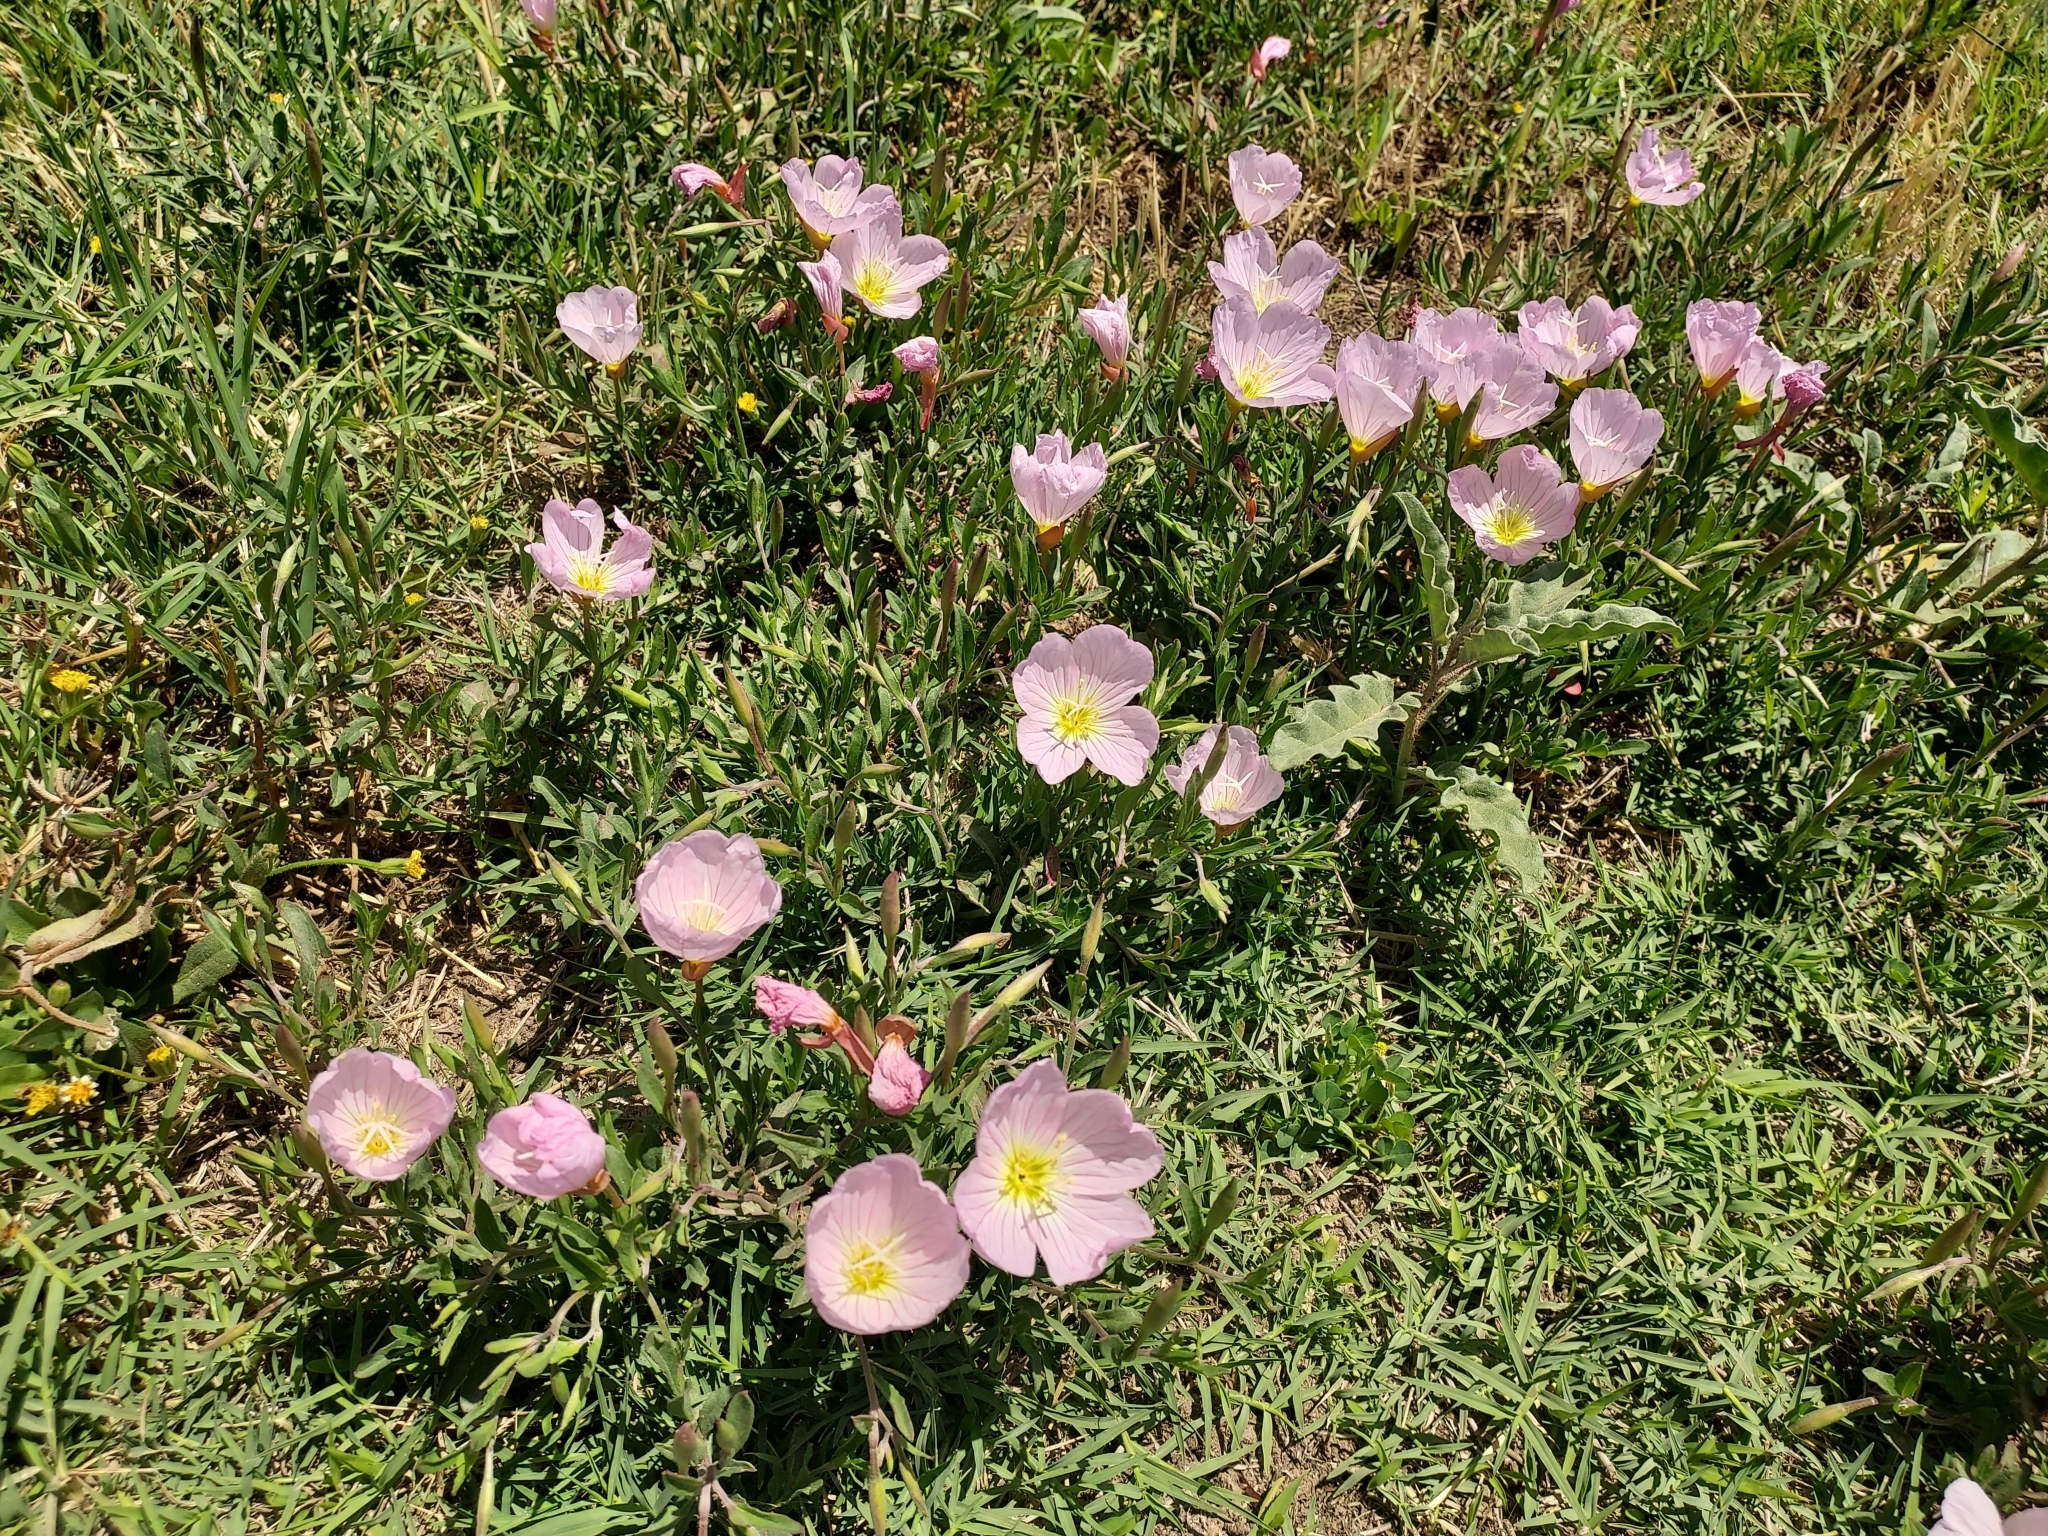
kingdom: Plantae
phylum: Tracheophyta
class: Magnoliopsida
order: Myrtales
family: Onagraceae
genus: Oenothera
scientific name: Oenothera speciosa
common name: White evening-primrose
